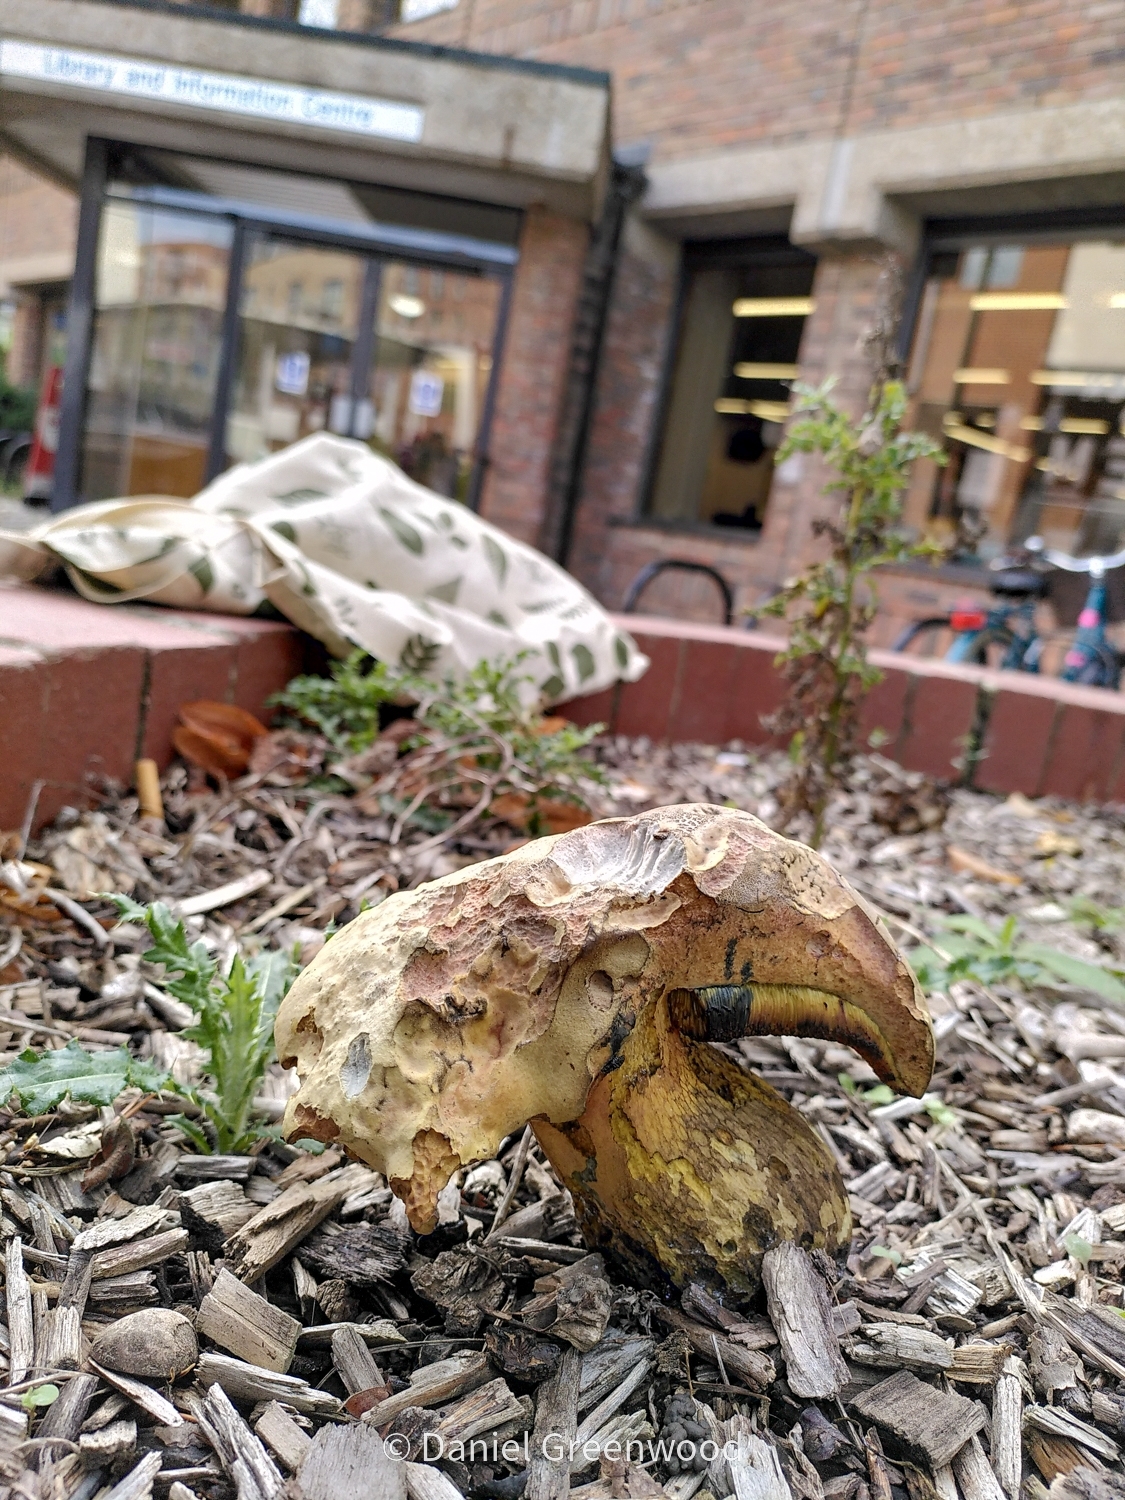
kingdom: Fungi
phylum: Basidiomycota
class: Agaricomycetes
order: Boletales
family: Boletaceae
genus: Suillellus
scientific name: Suillellus luridus
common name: Lurid bolete
